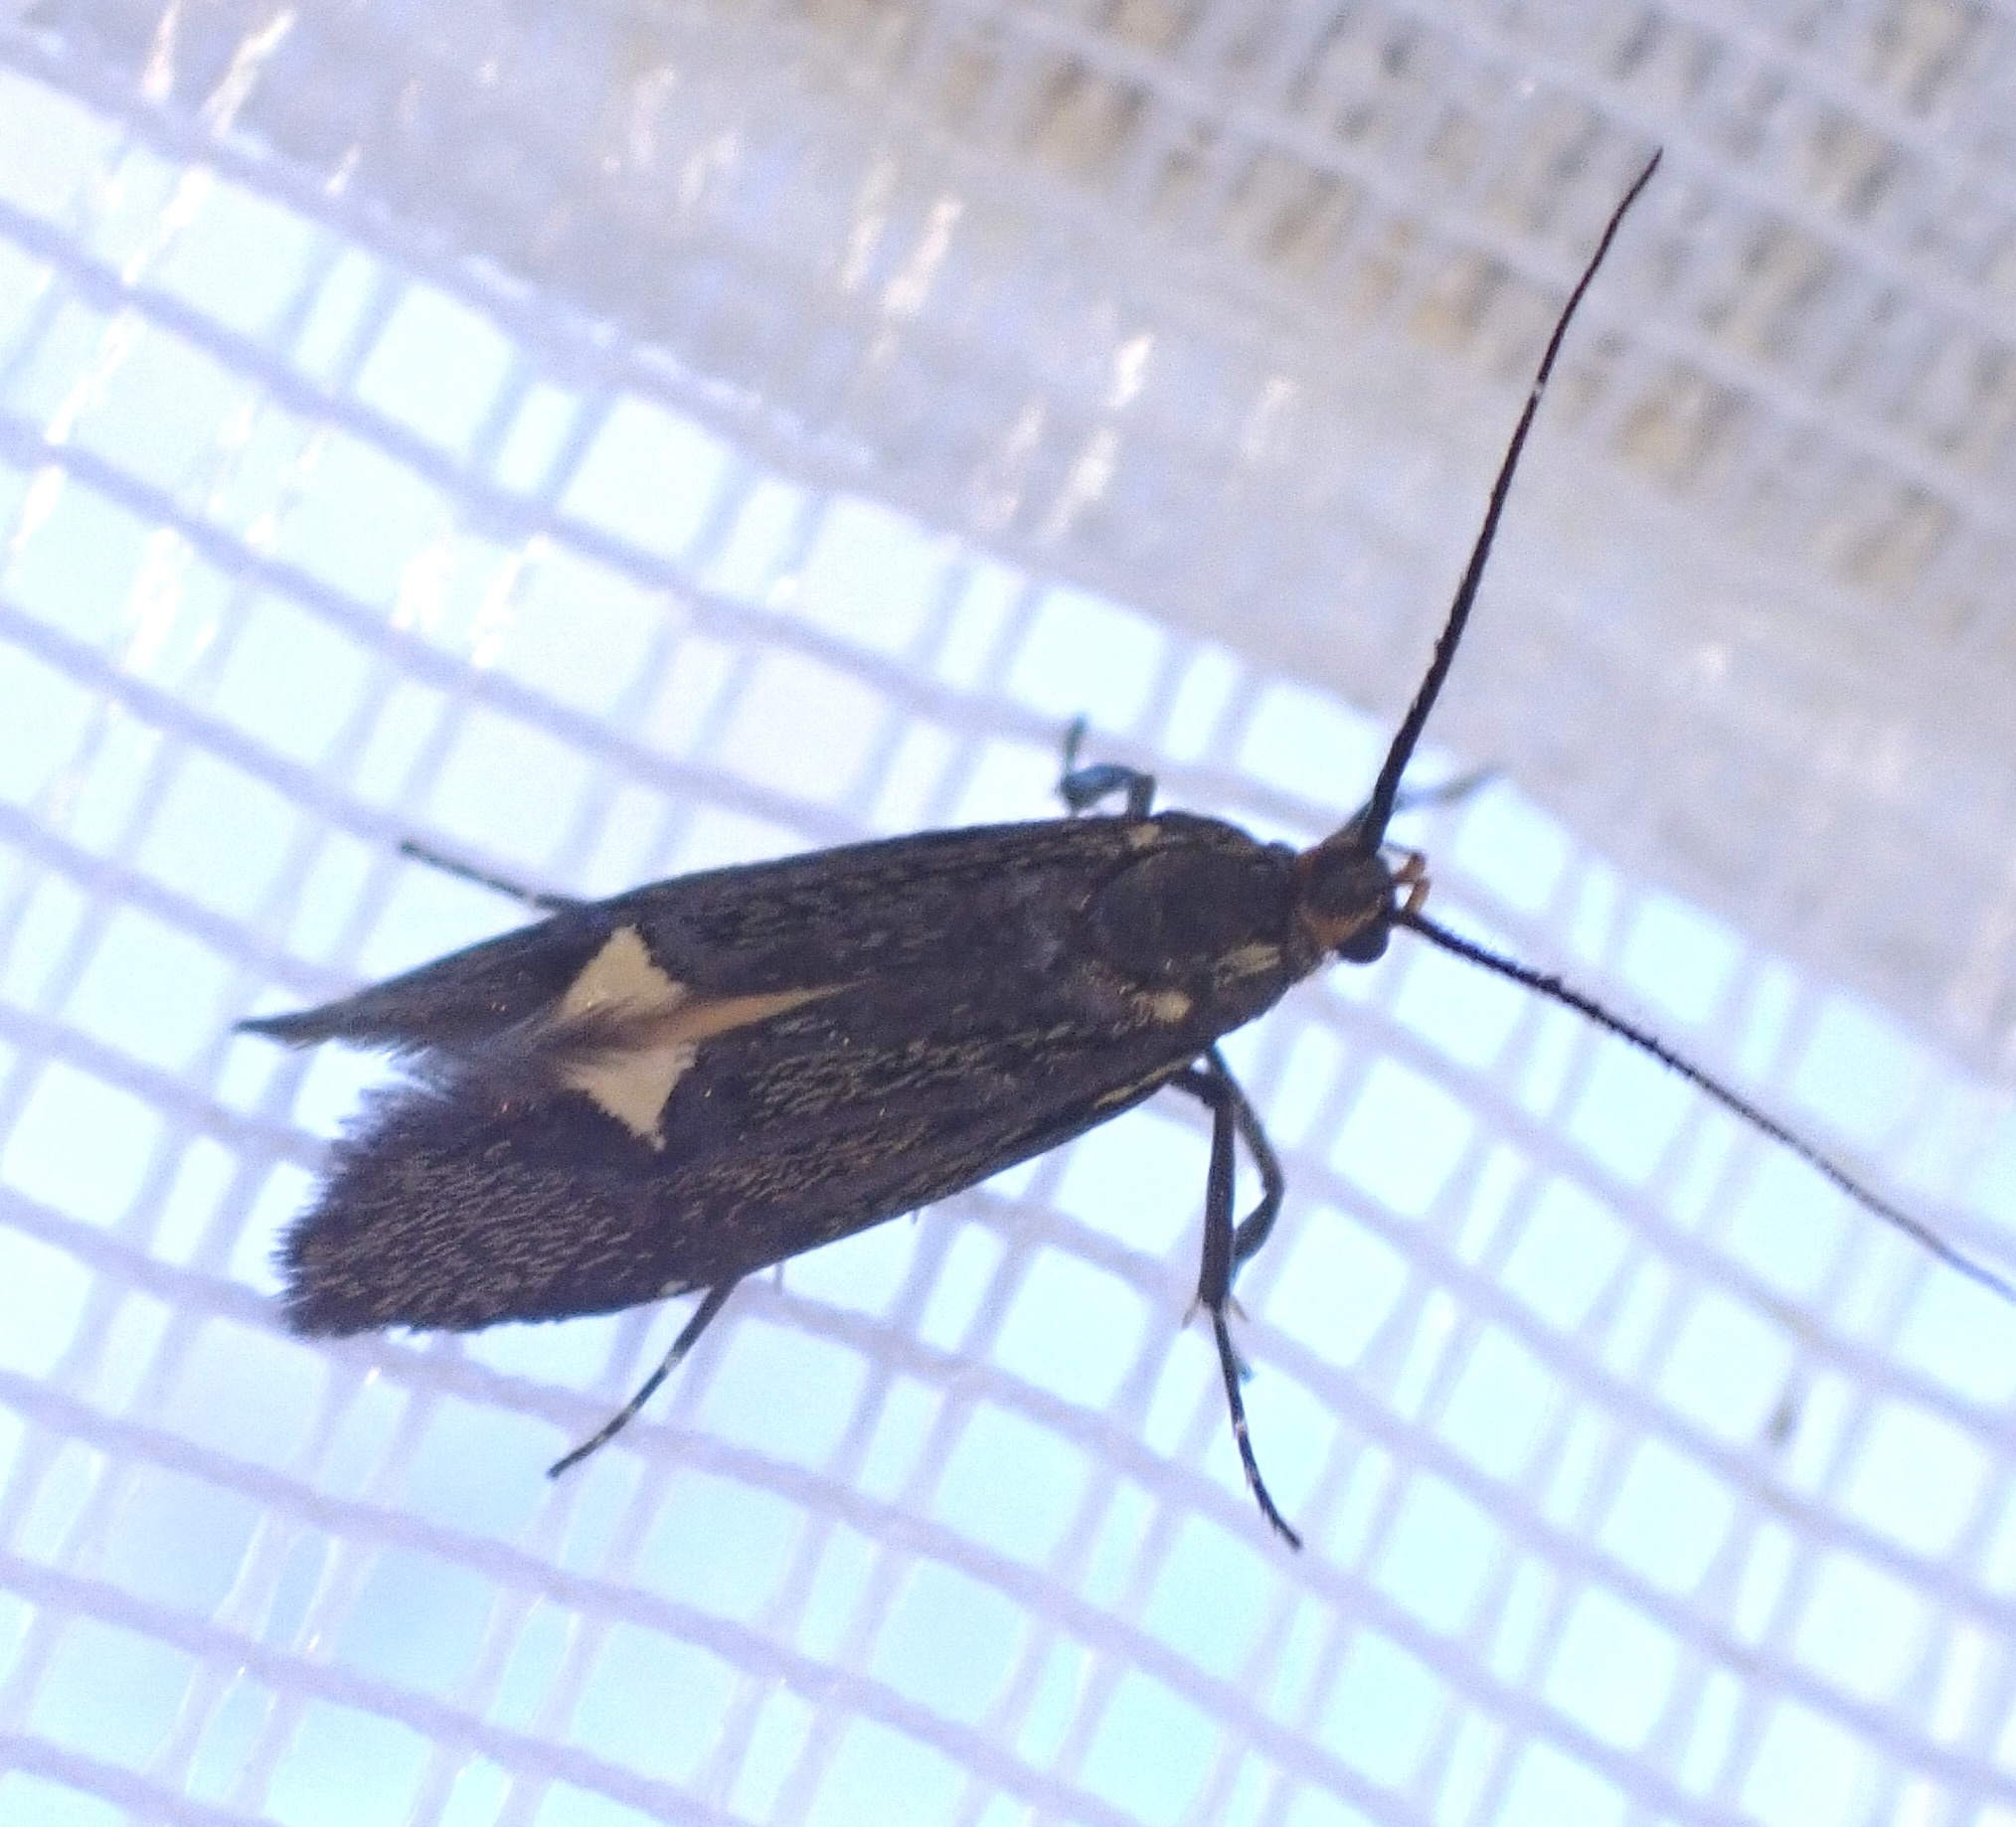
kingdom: Animalia
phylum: Arthropoda
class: Insecta
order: Lepidoptera
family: Oecophoridae
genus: Dafa
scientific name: Dafa Esperia sulphurella
